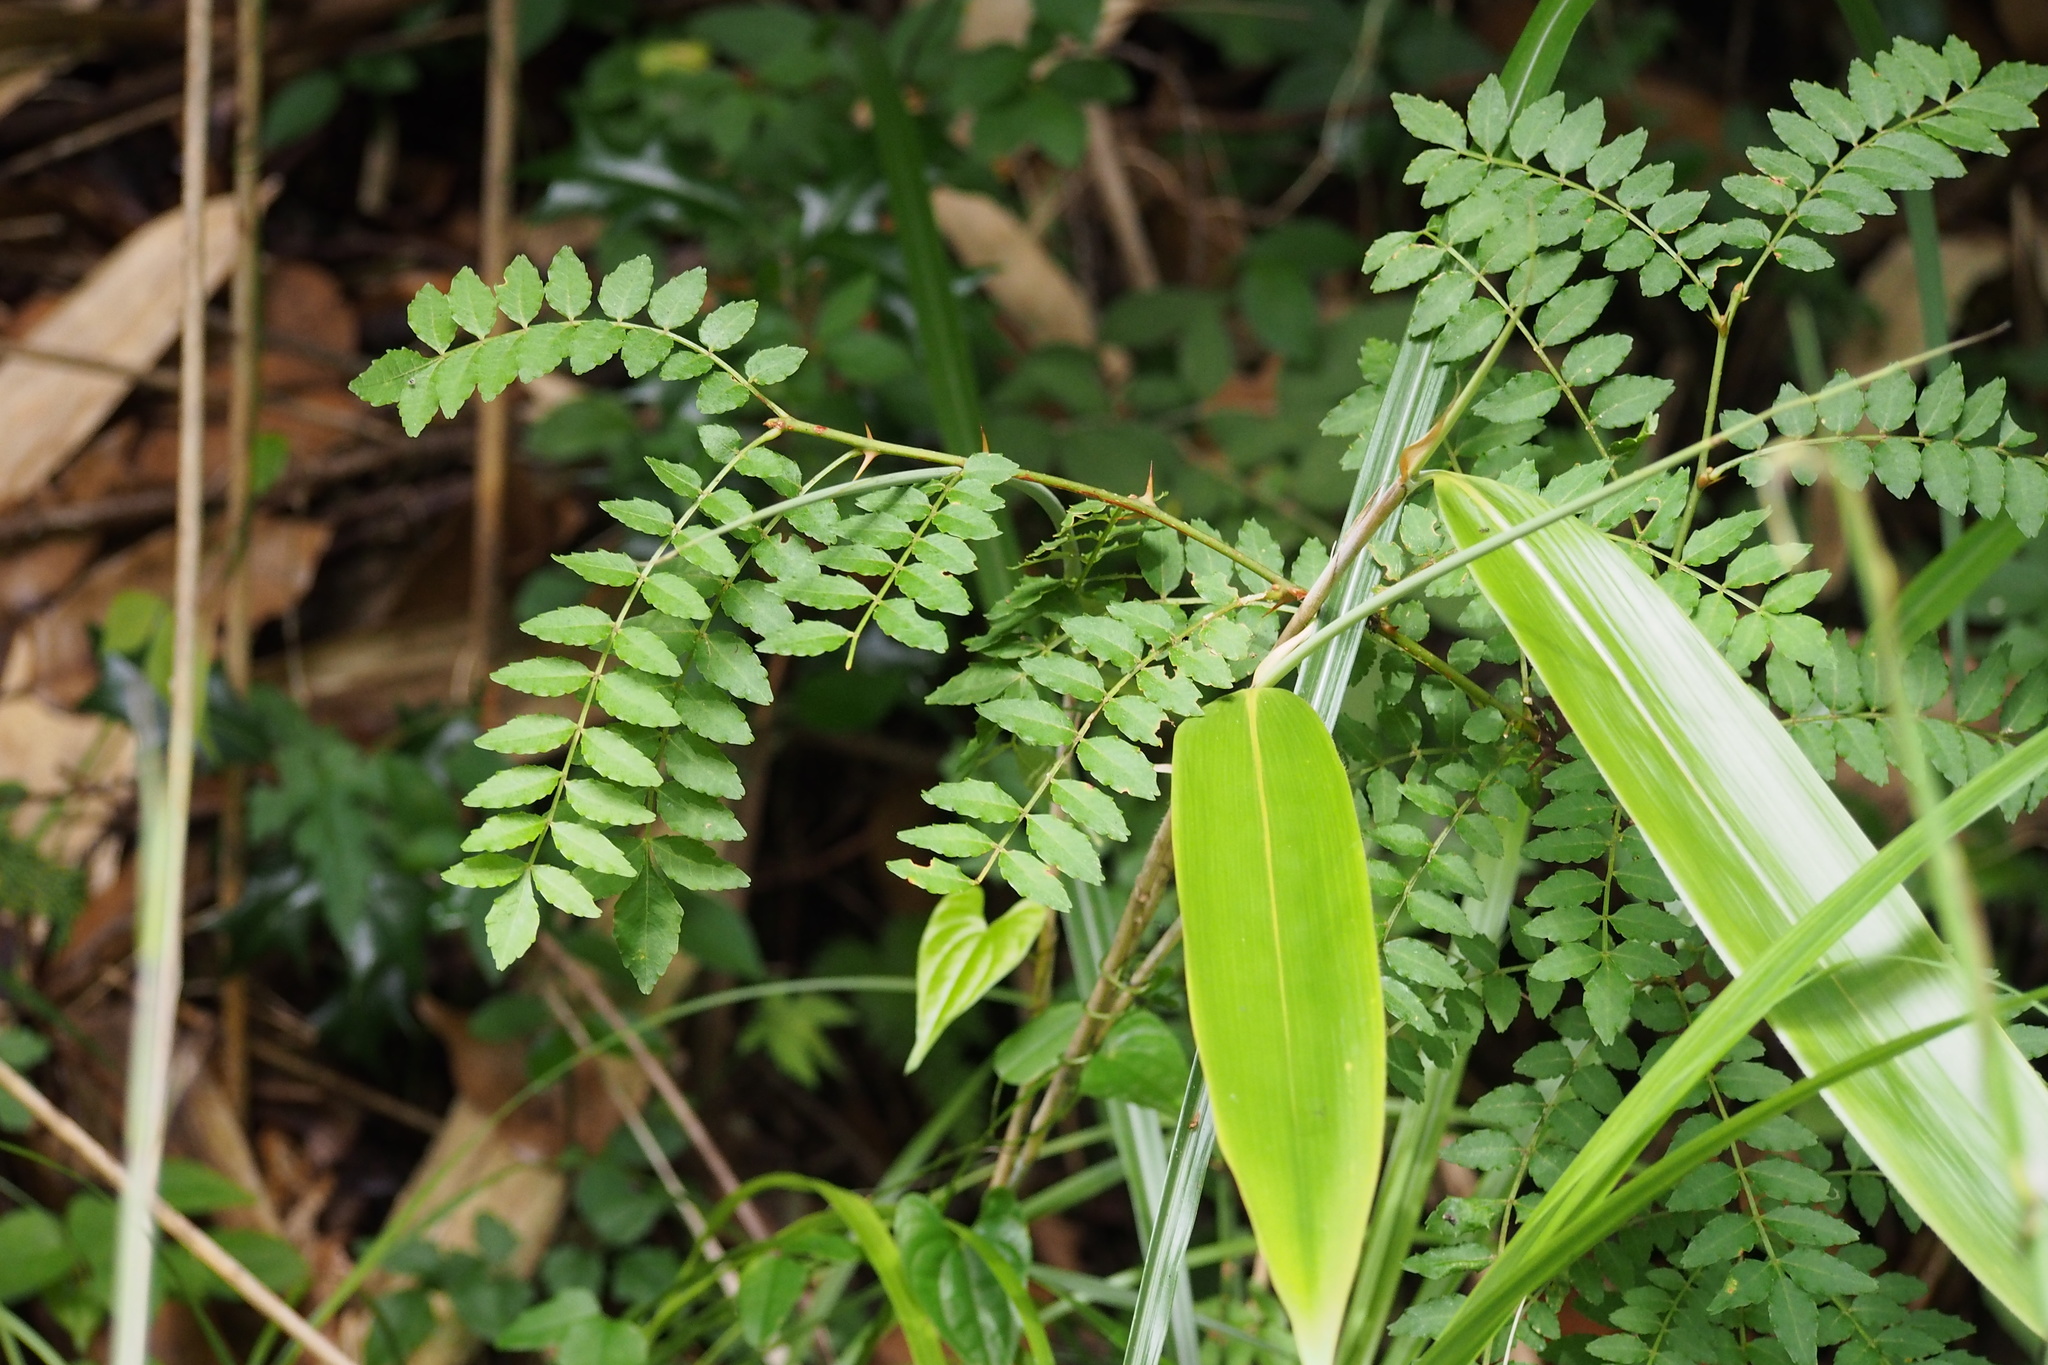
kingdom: Plantae
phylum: Tracheophyta
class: Magnoliopsida
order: Sapindales
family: Rutaceae
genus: Zanthoxylum
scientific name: Zanthoxylum piperitum
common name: Japanese-pepper
